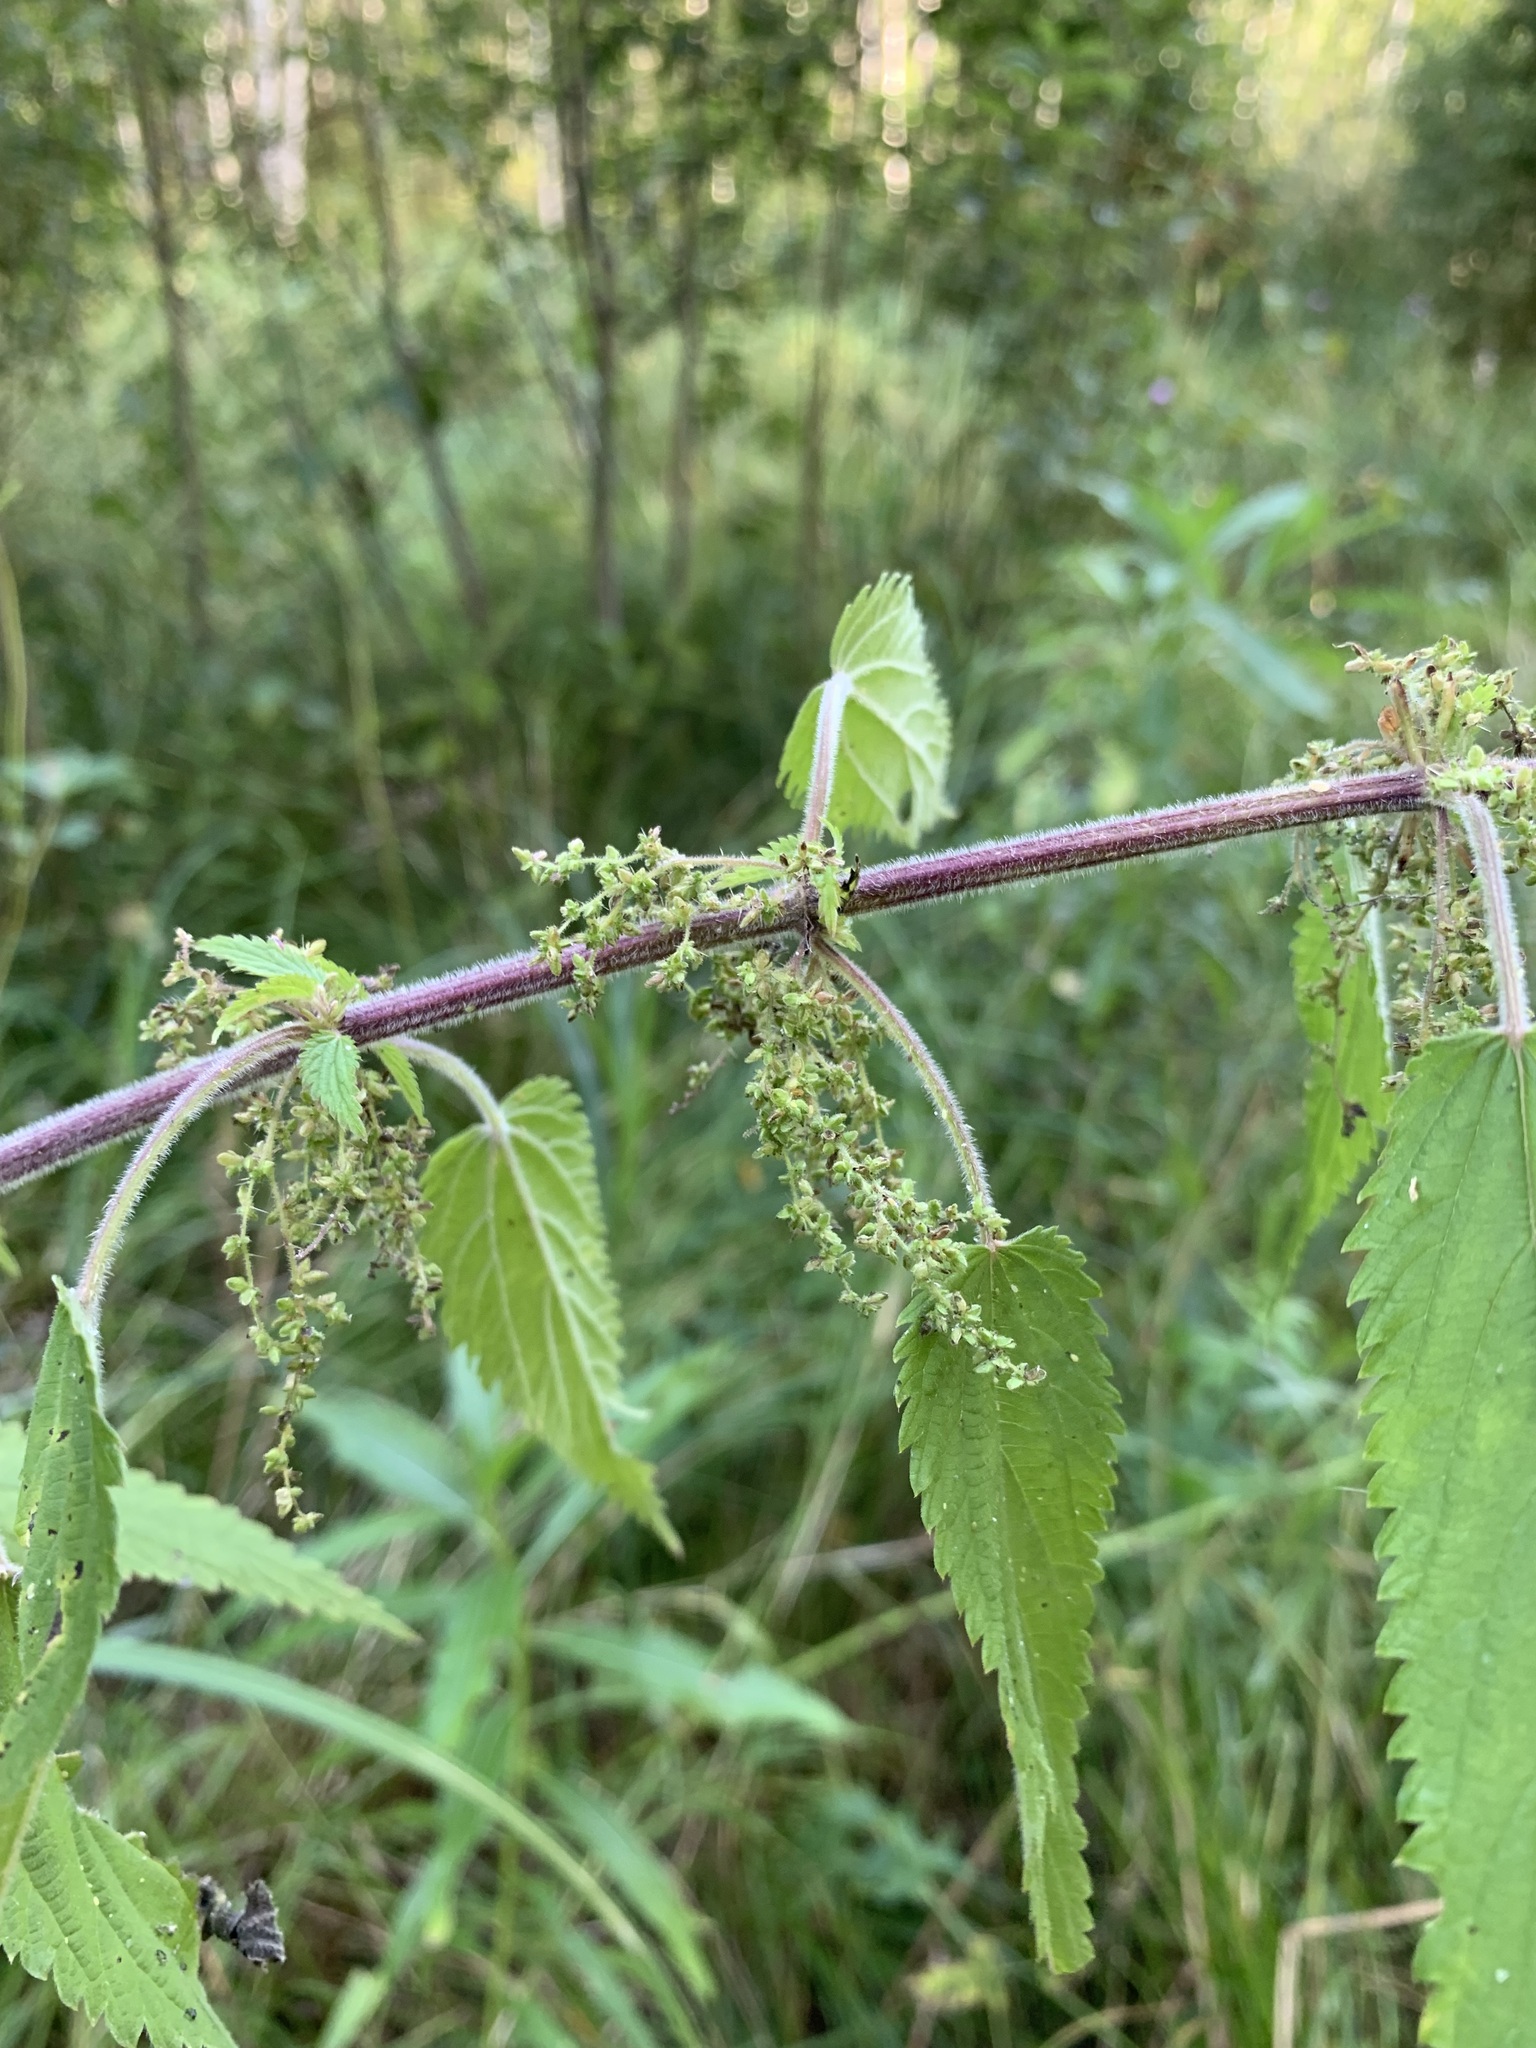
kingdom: Plantae
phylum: Tracheophyta
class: Magnoliopsida
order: Rosales
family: Urticaceae
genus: Urtica
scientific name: Urtica galeopsifolia
